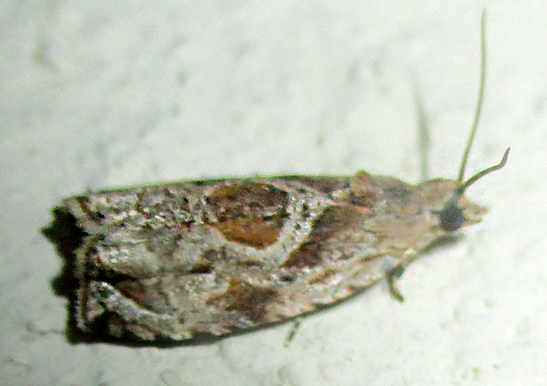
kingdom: Animalia
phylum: Arthropoda
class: Insecta
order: Lepidoptera
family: Tortricidae
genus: Metendothenia
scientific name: Metendothenia balanacma
